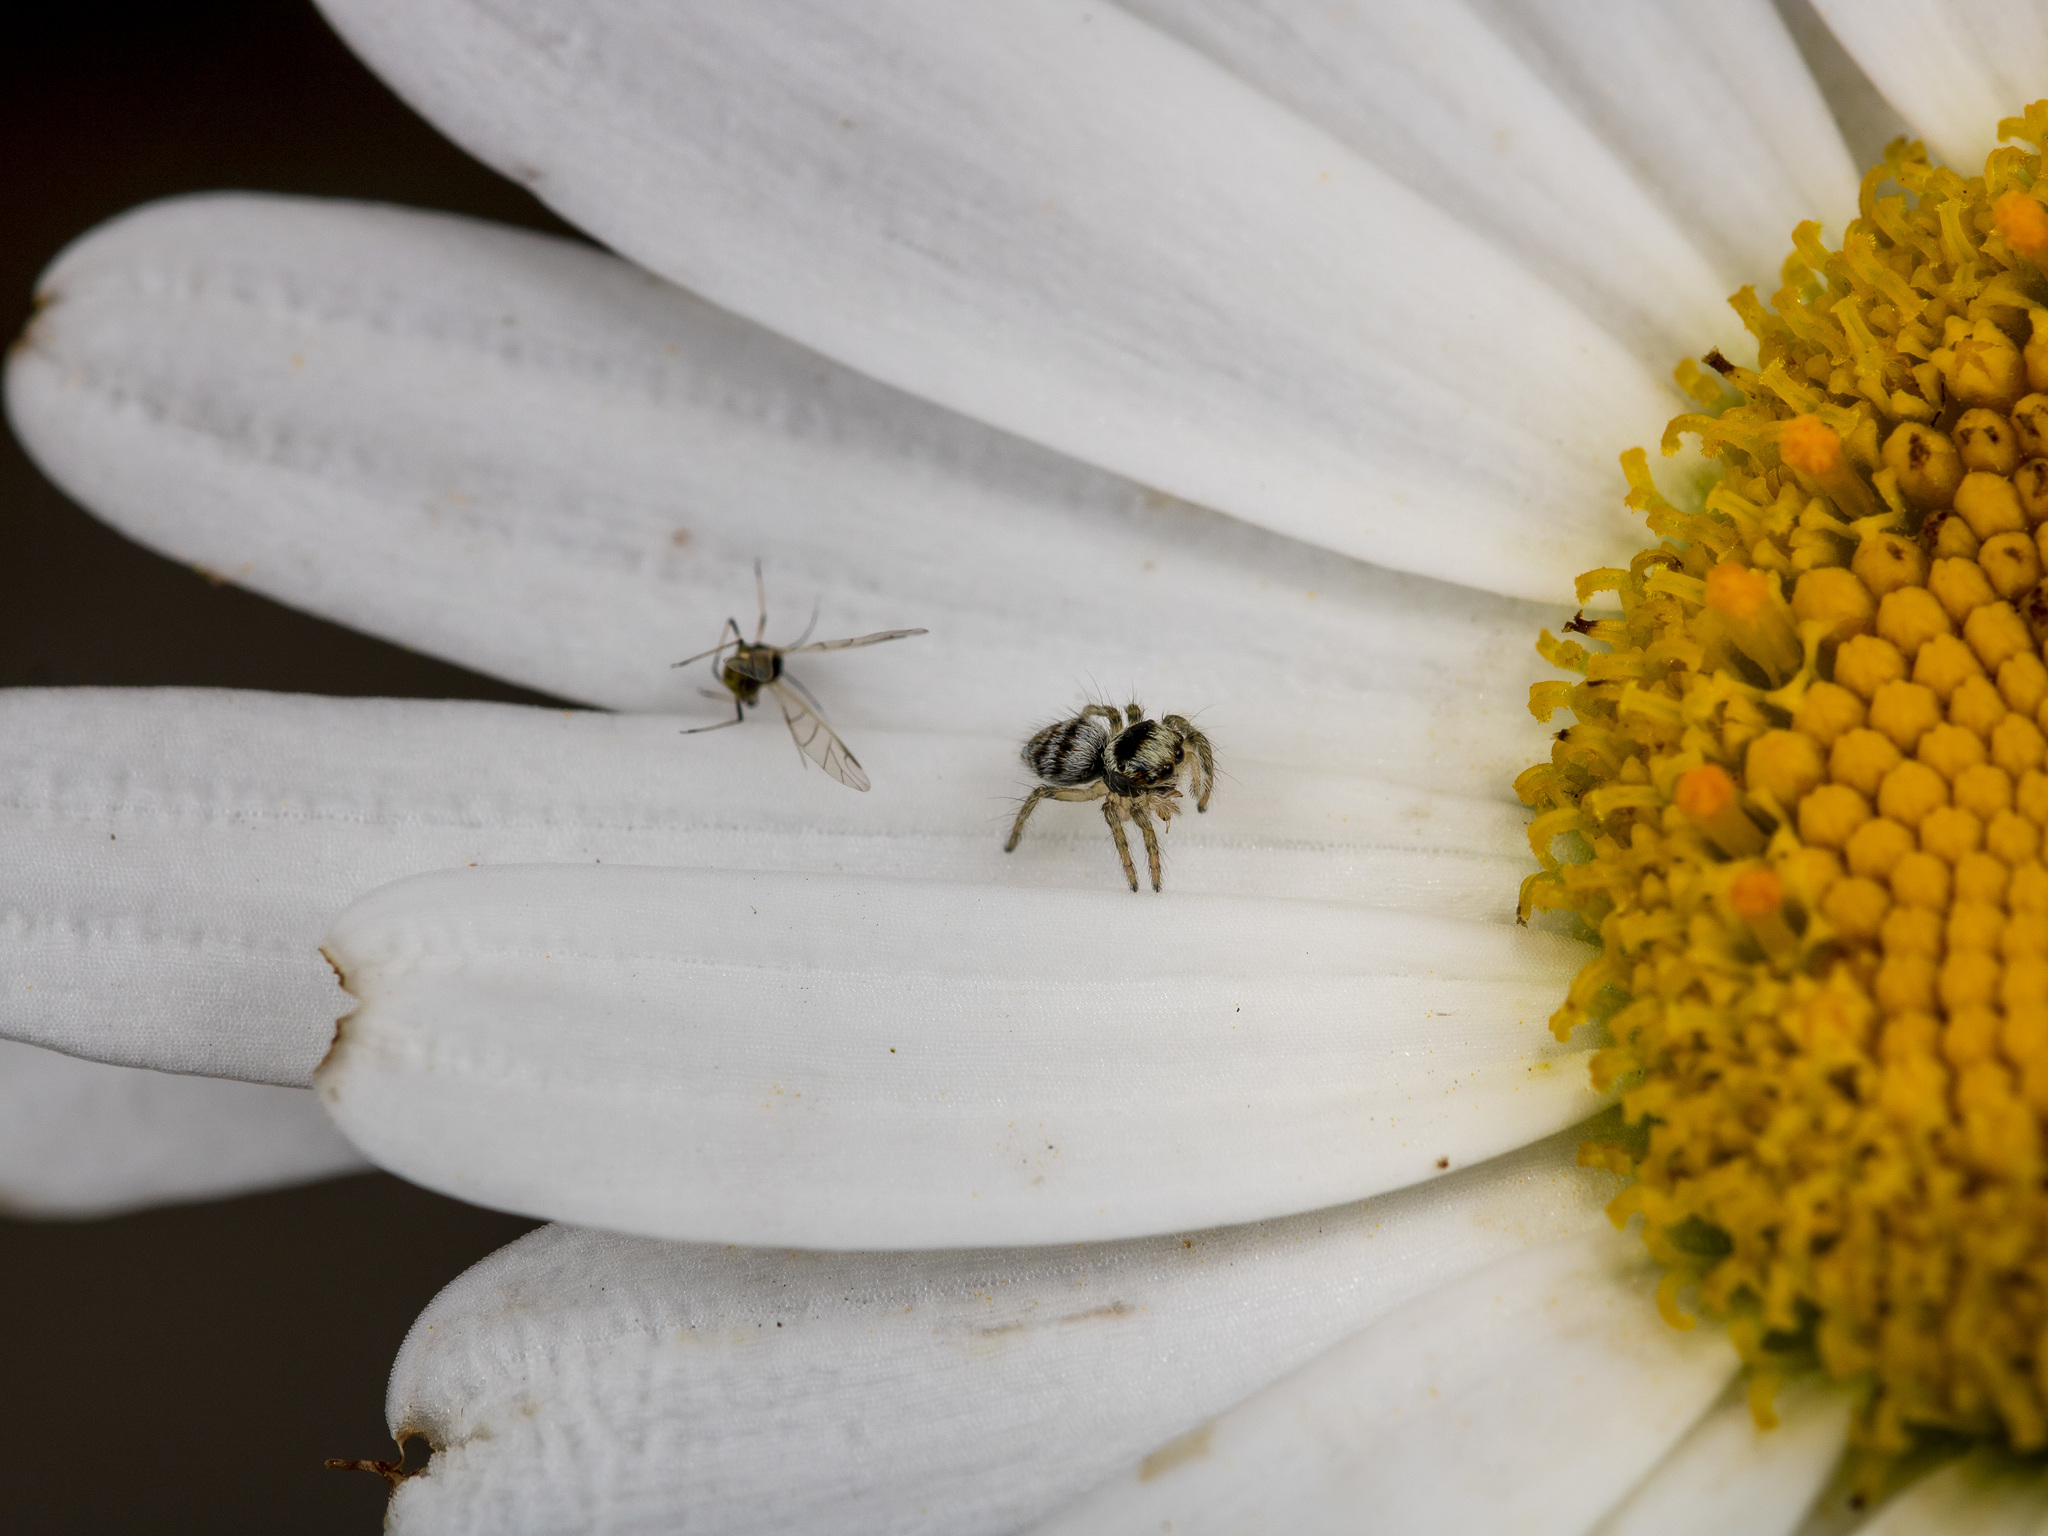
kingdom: Animalia
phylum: Arthropoda
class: Arachnida
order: Araneae
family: Salticidae
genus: Philaeus
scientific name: Philaeus chrysops
